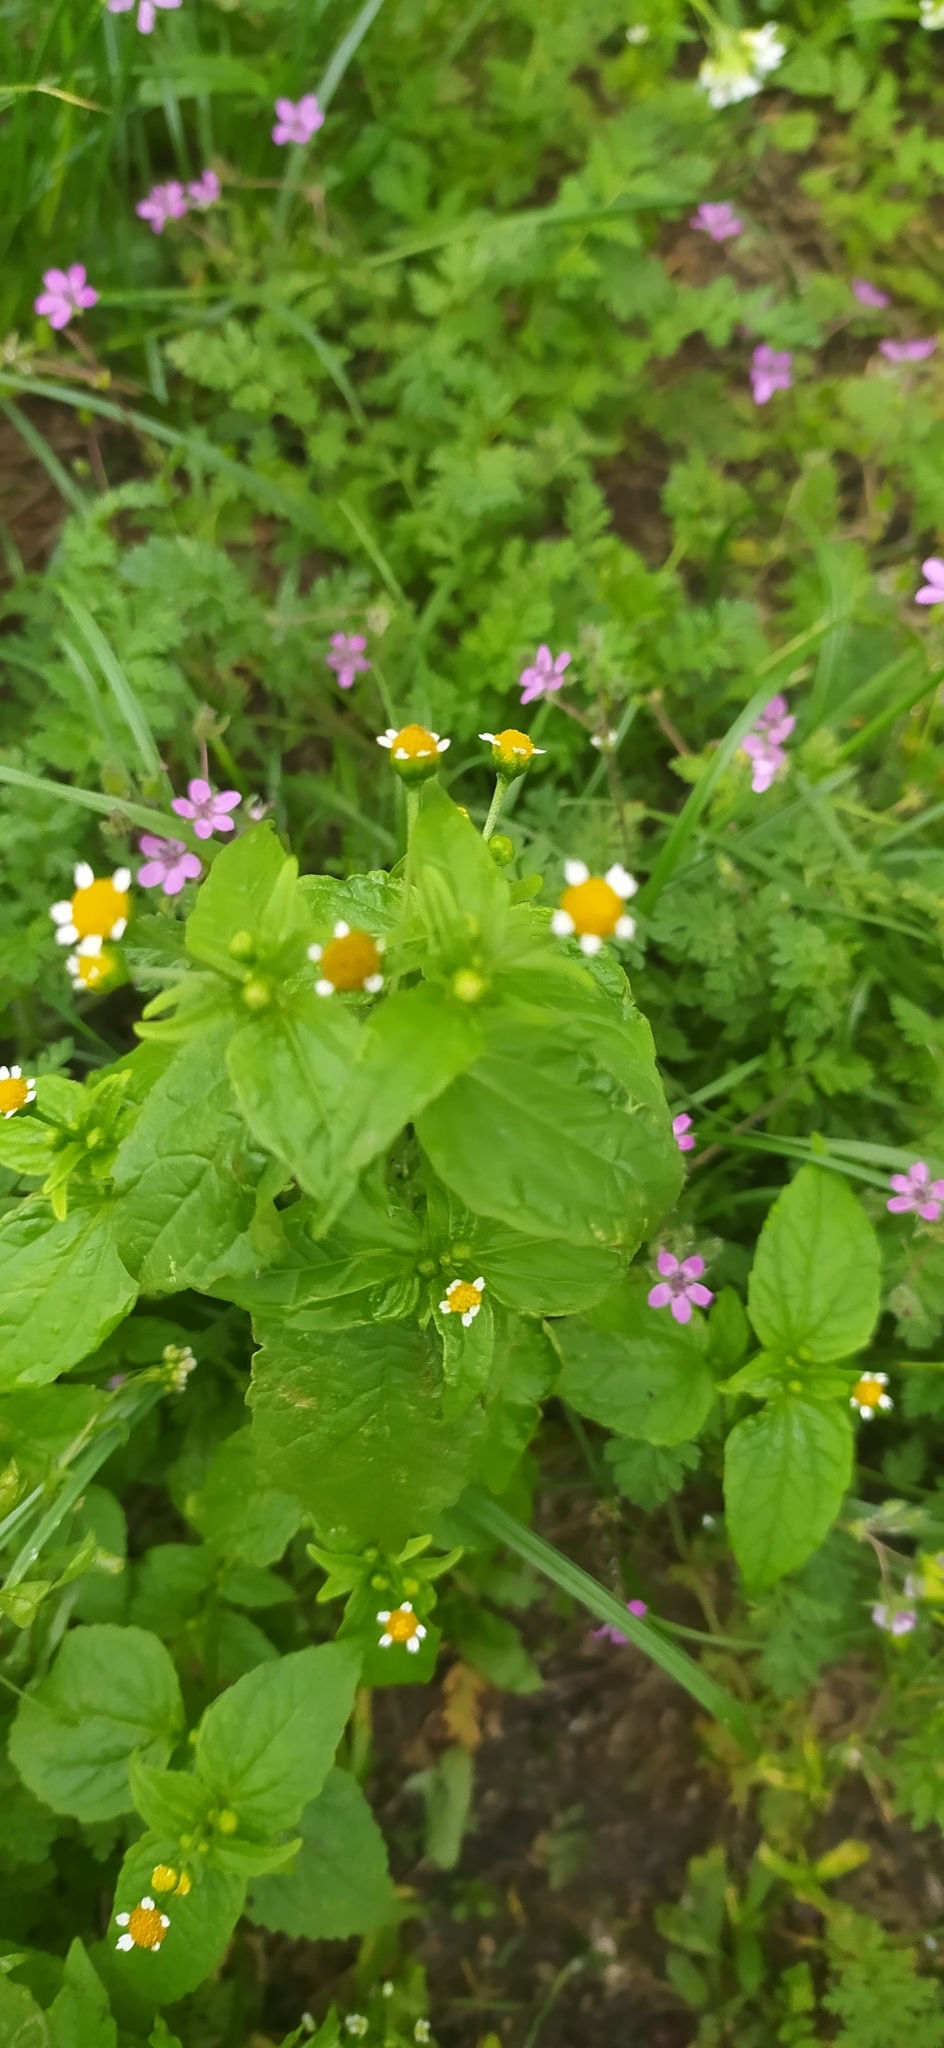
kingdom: Plantae
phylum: Tracheophyta
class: Magnoliopsida
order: Asterales
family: Asteraceae
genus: Galinsoga
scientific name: Galinsoga parviflora
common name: Gallant soldier
